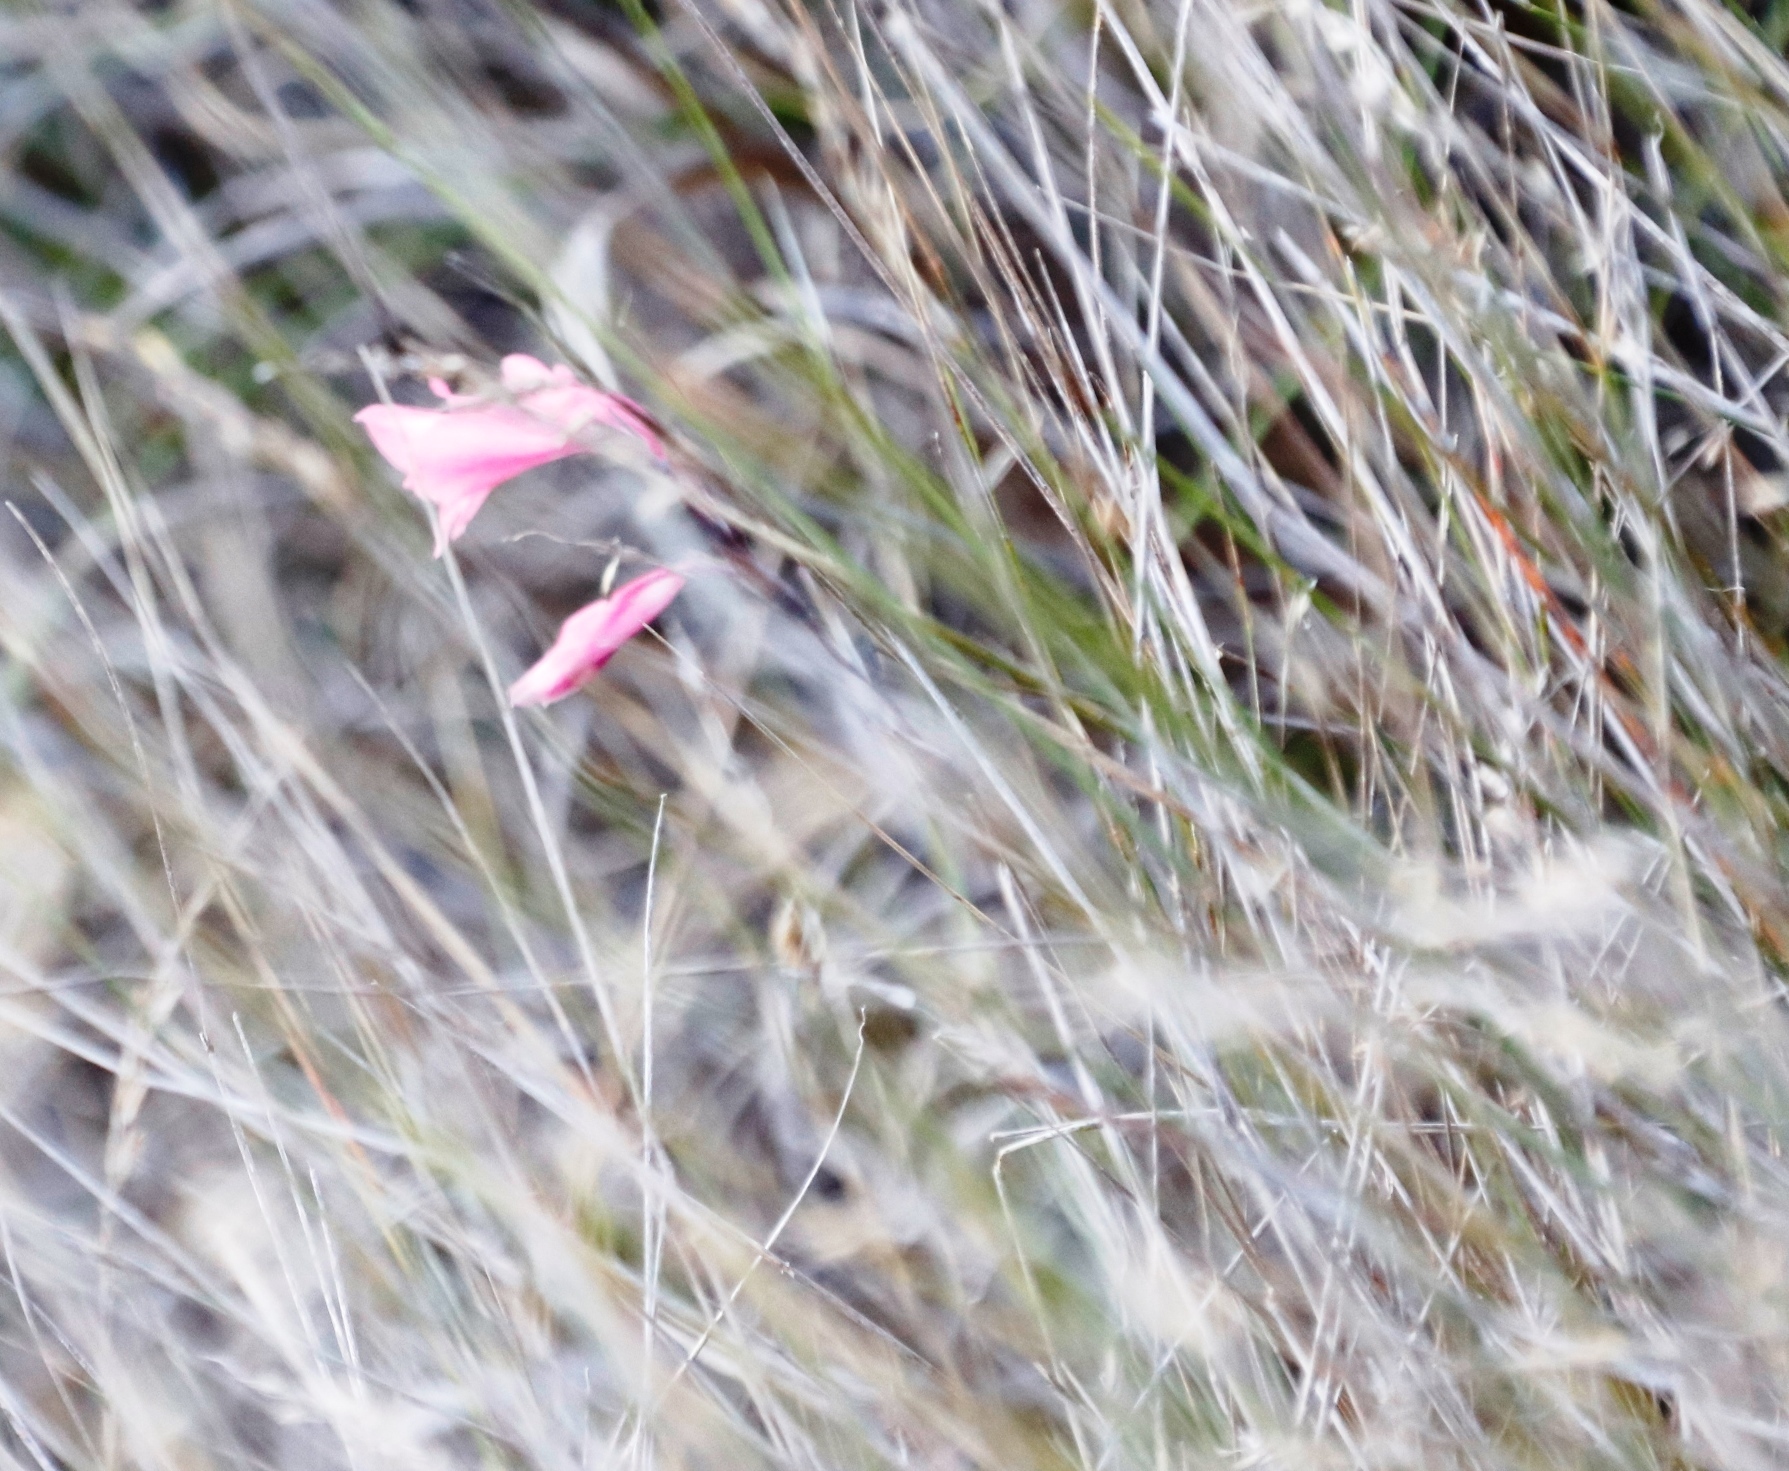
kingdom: Plantae
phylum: Tracheophyta
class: Liliopsida
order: Asparagales
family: Iridaceae
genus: Gladiolus
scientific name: Gladiolus brevifolius
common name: March pypie
